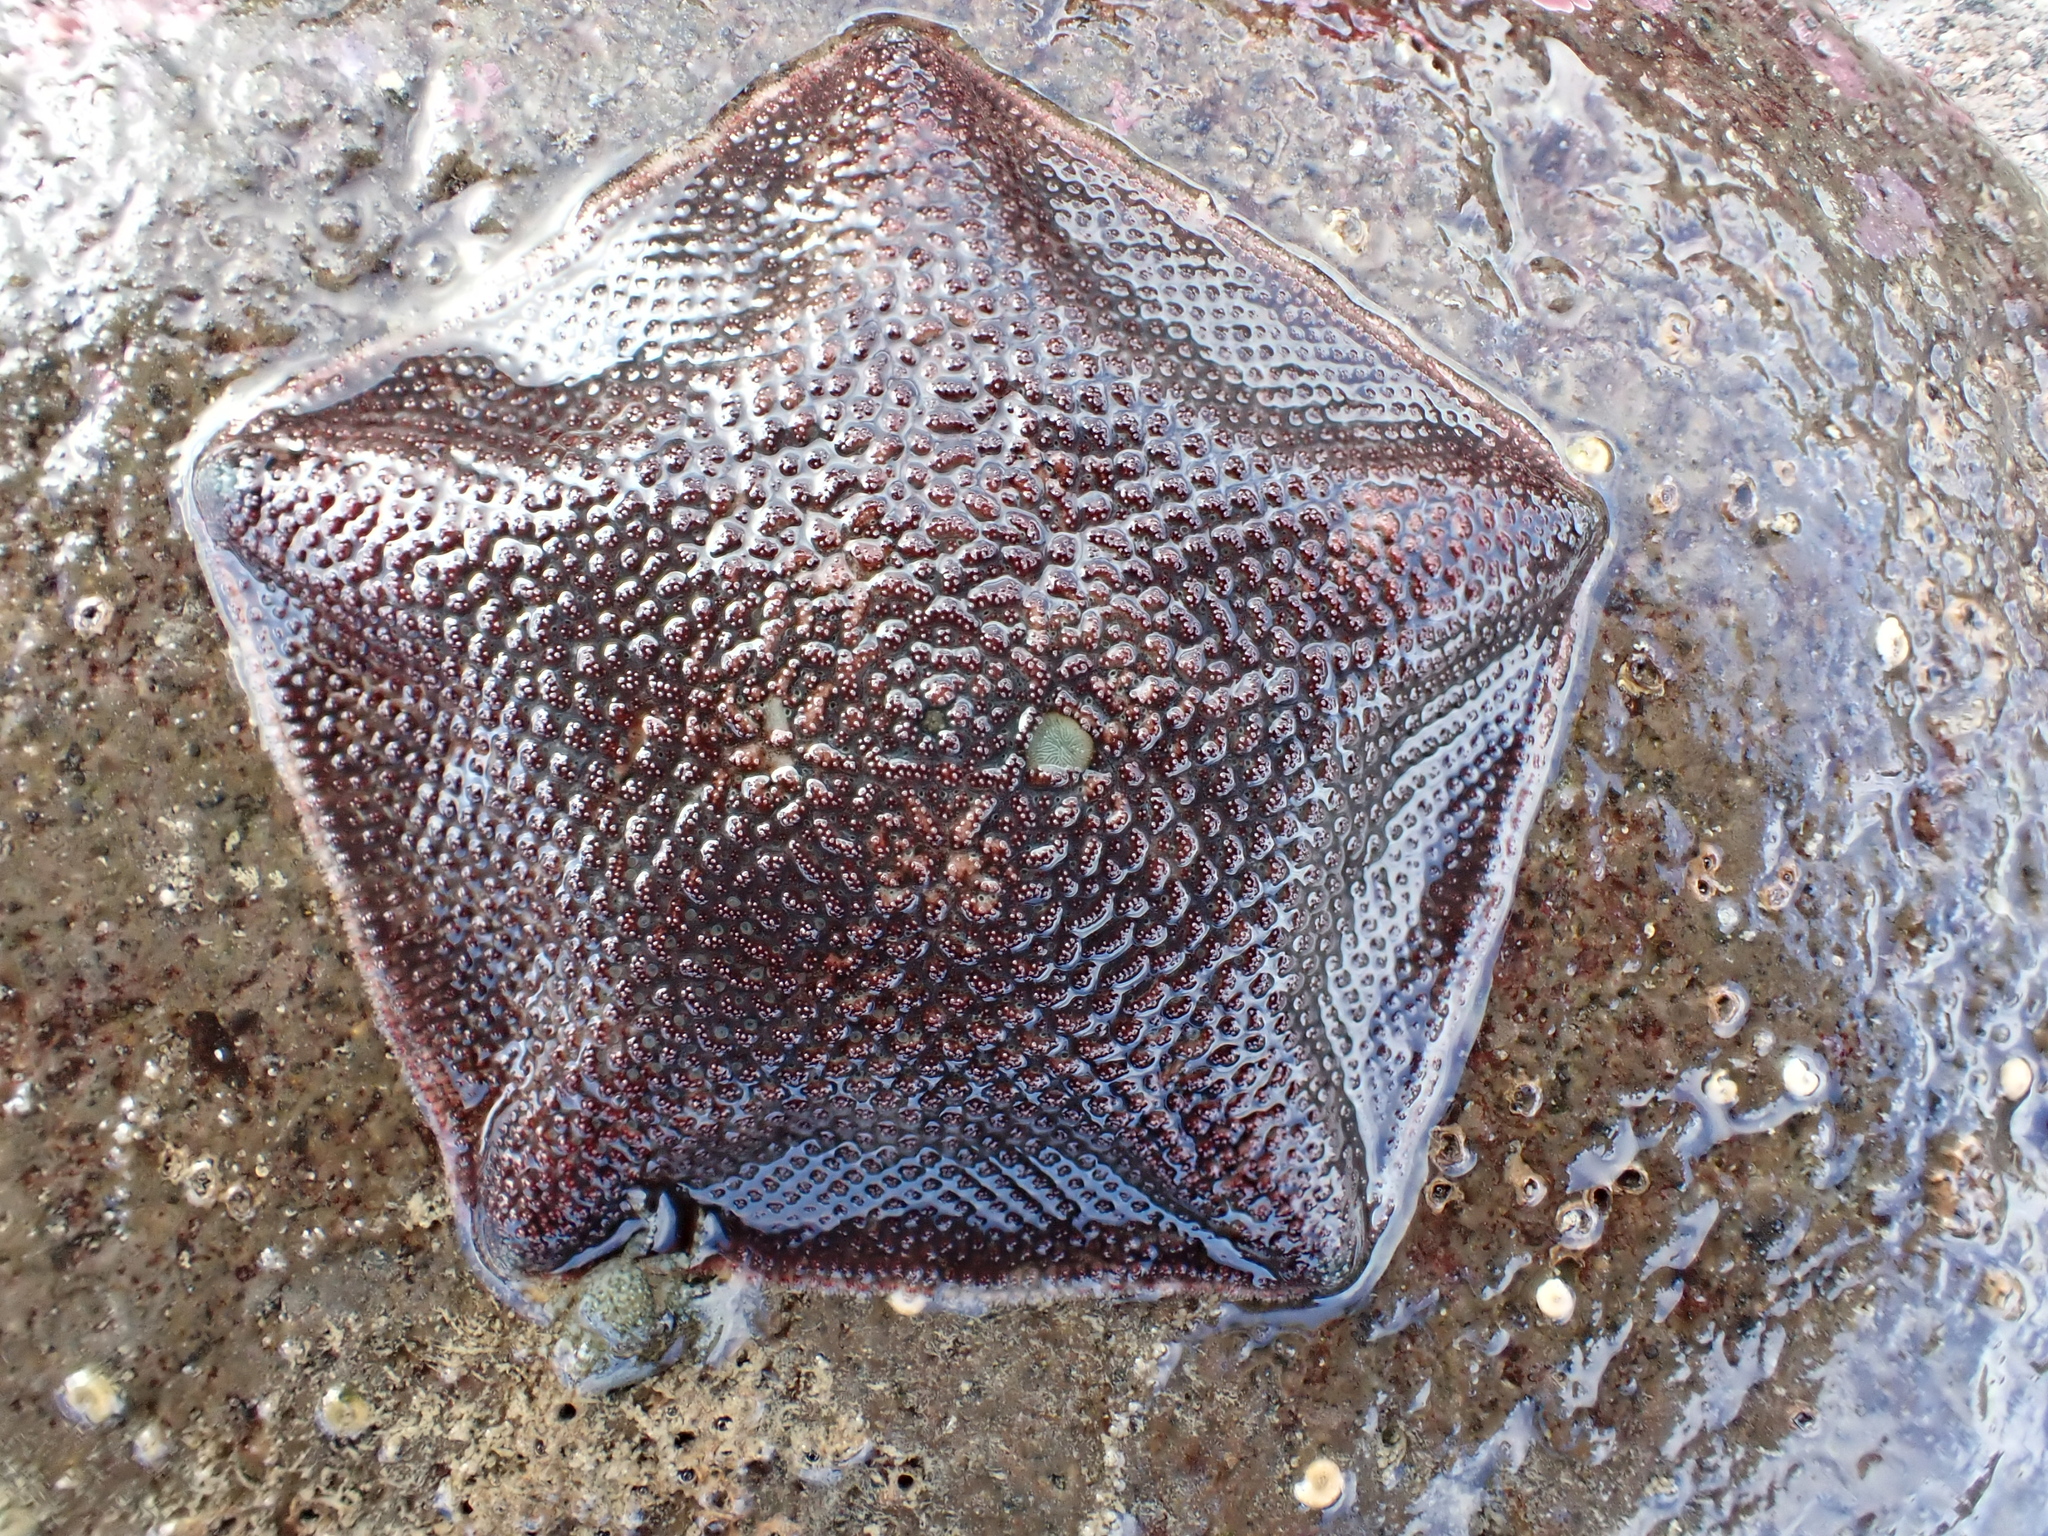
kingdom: Animalia
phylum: Echinodermata
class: Asteroidea
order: Valvatida
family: Asterinidae
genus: Patiriella
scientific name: Patiriella regularis
